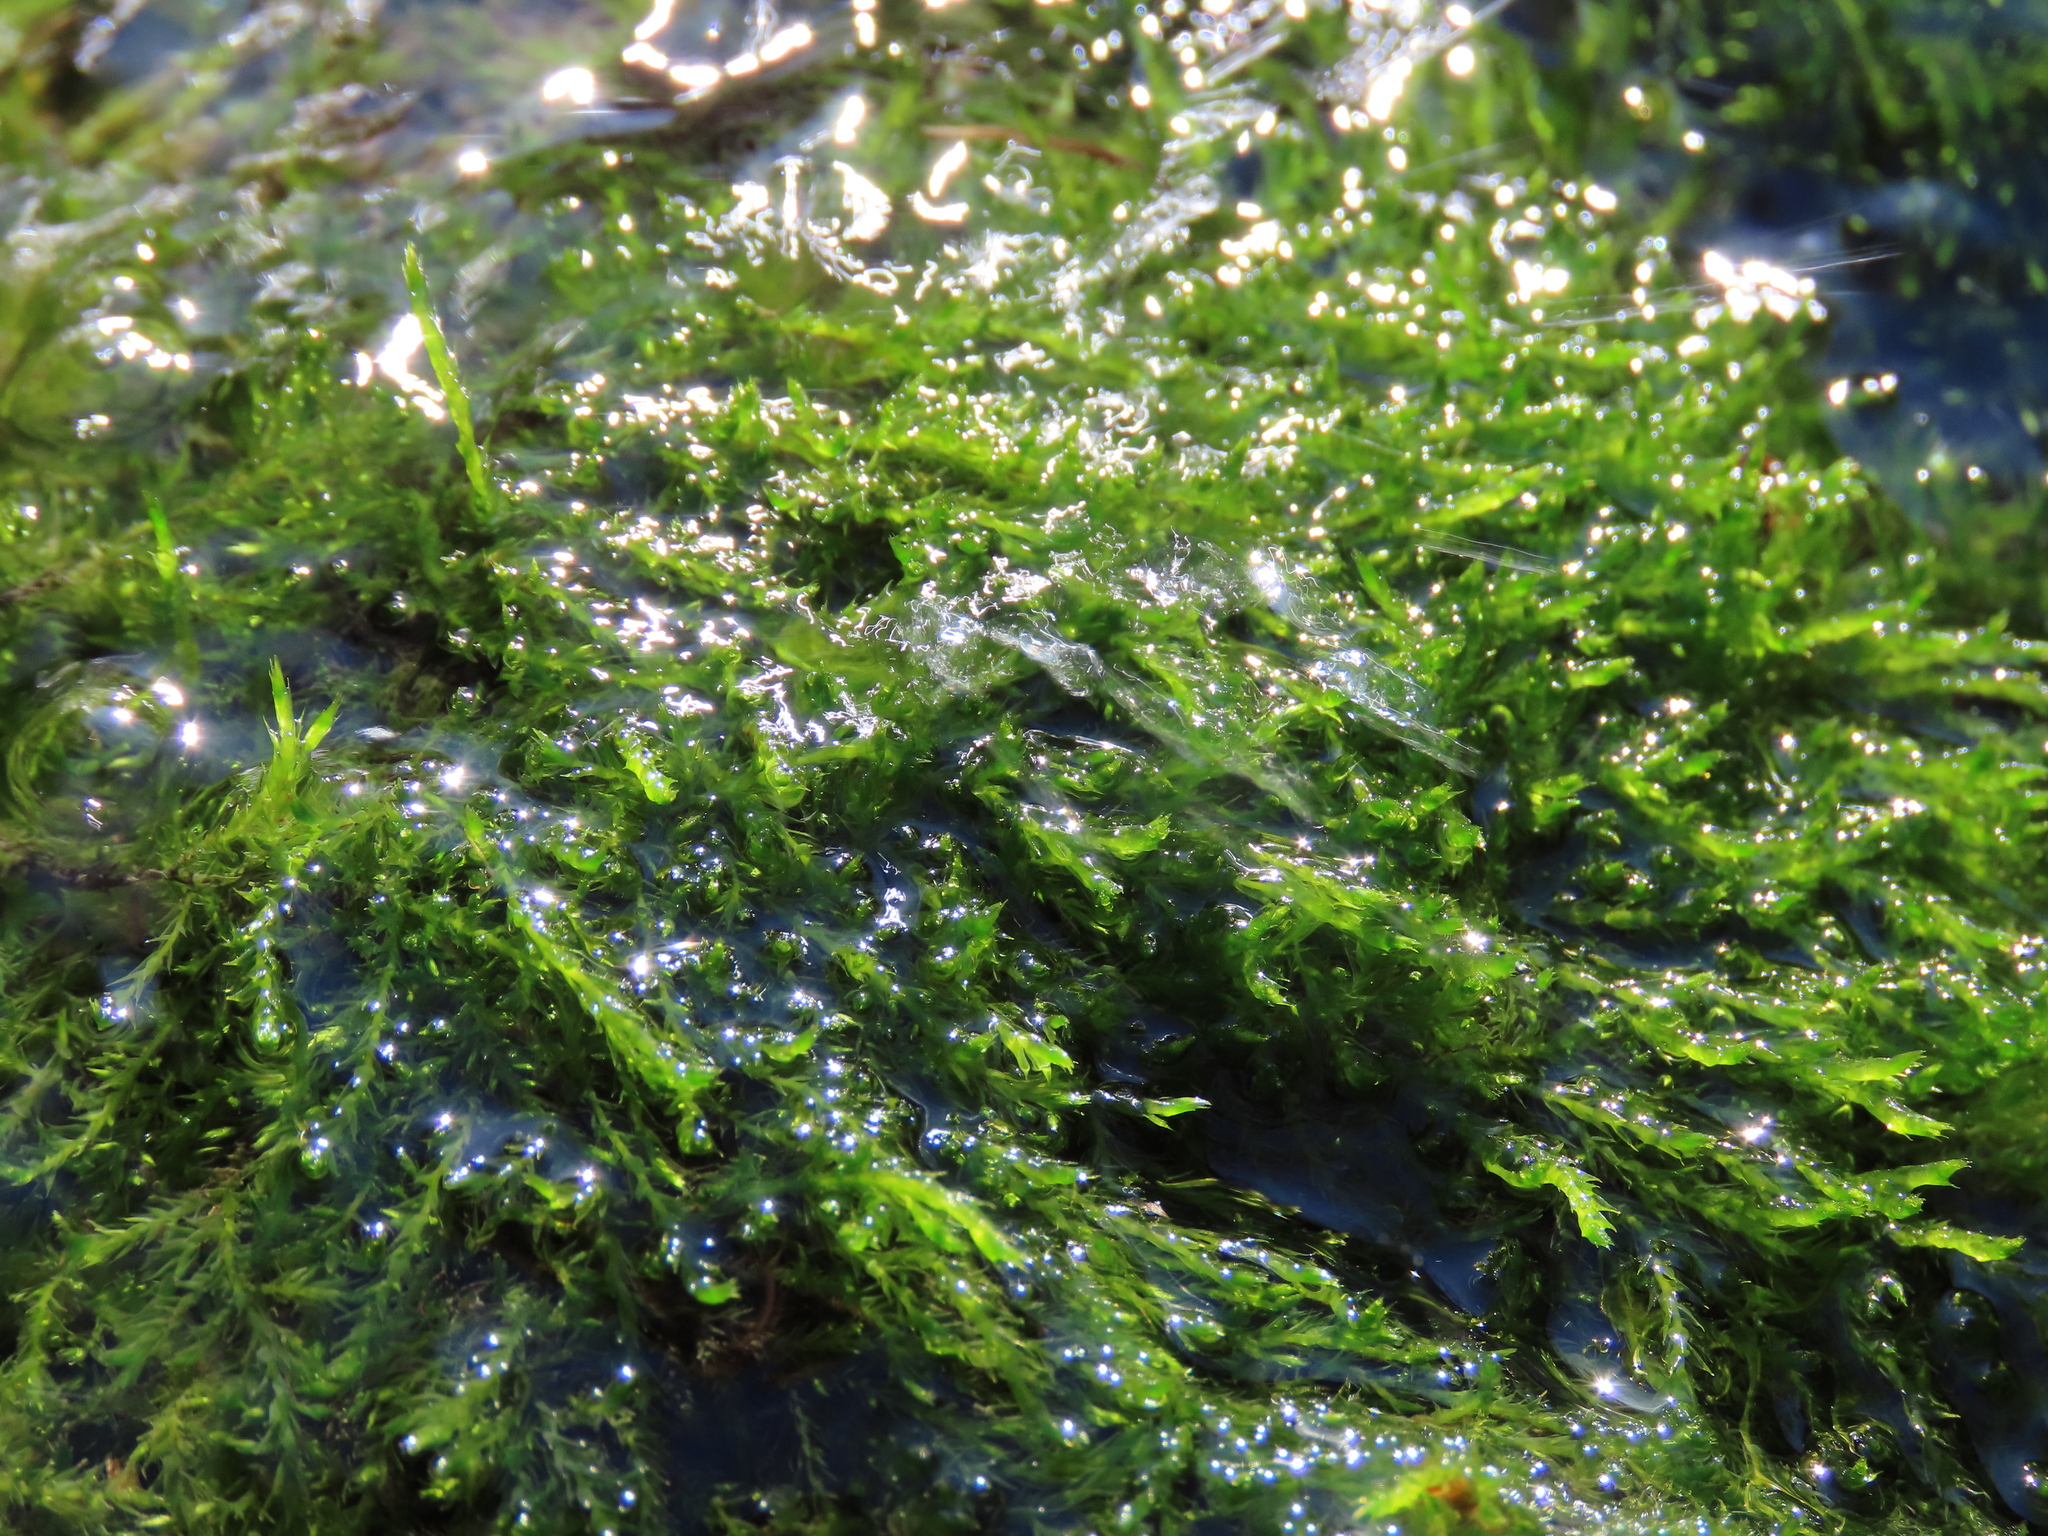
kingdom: Plantae
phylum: Bryophyta
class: Bryopsida
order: Hypnales
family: Amblystegiaceae
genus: Drepanocladus
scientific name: Drepanocladus aduncus
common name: Knieff's hook moss
